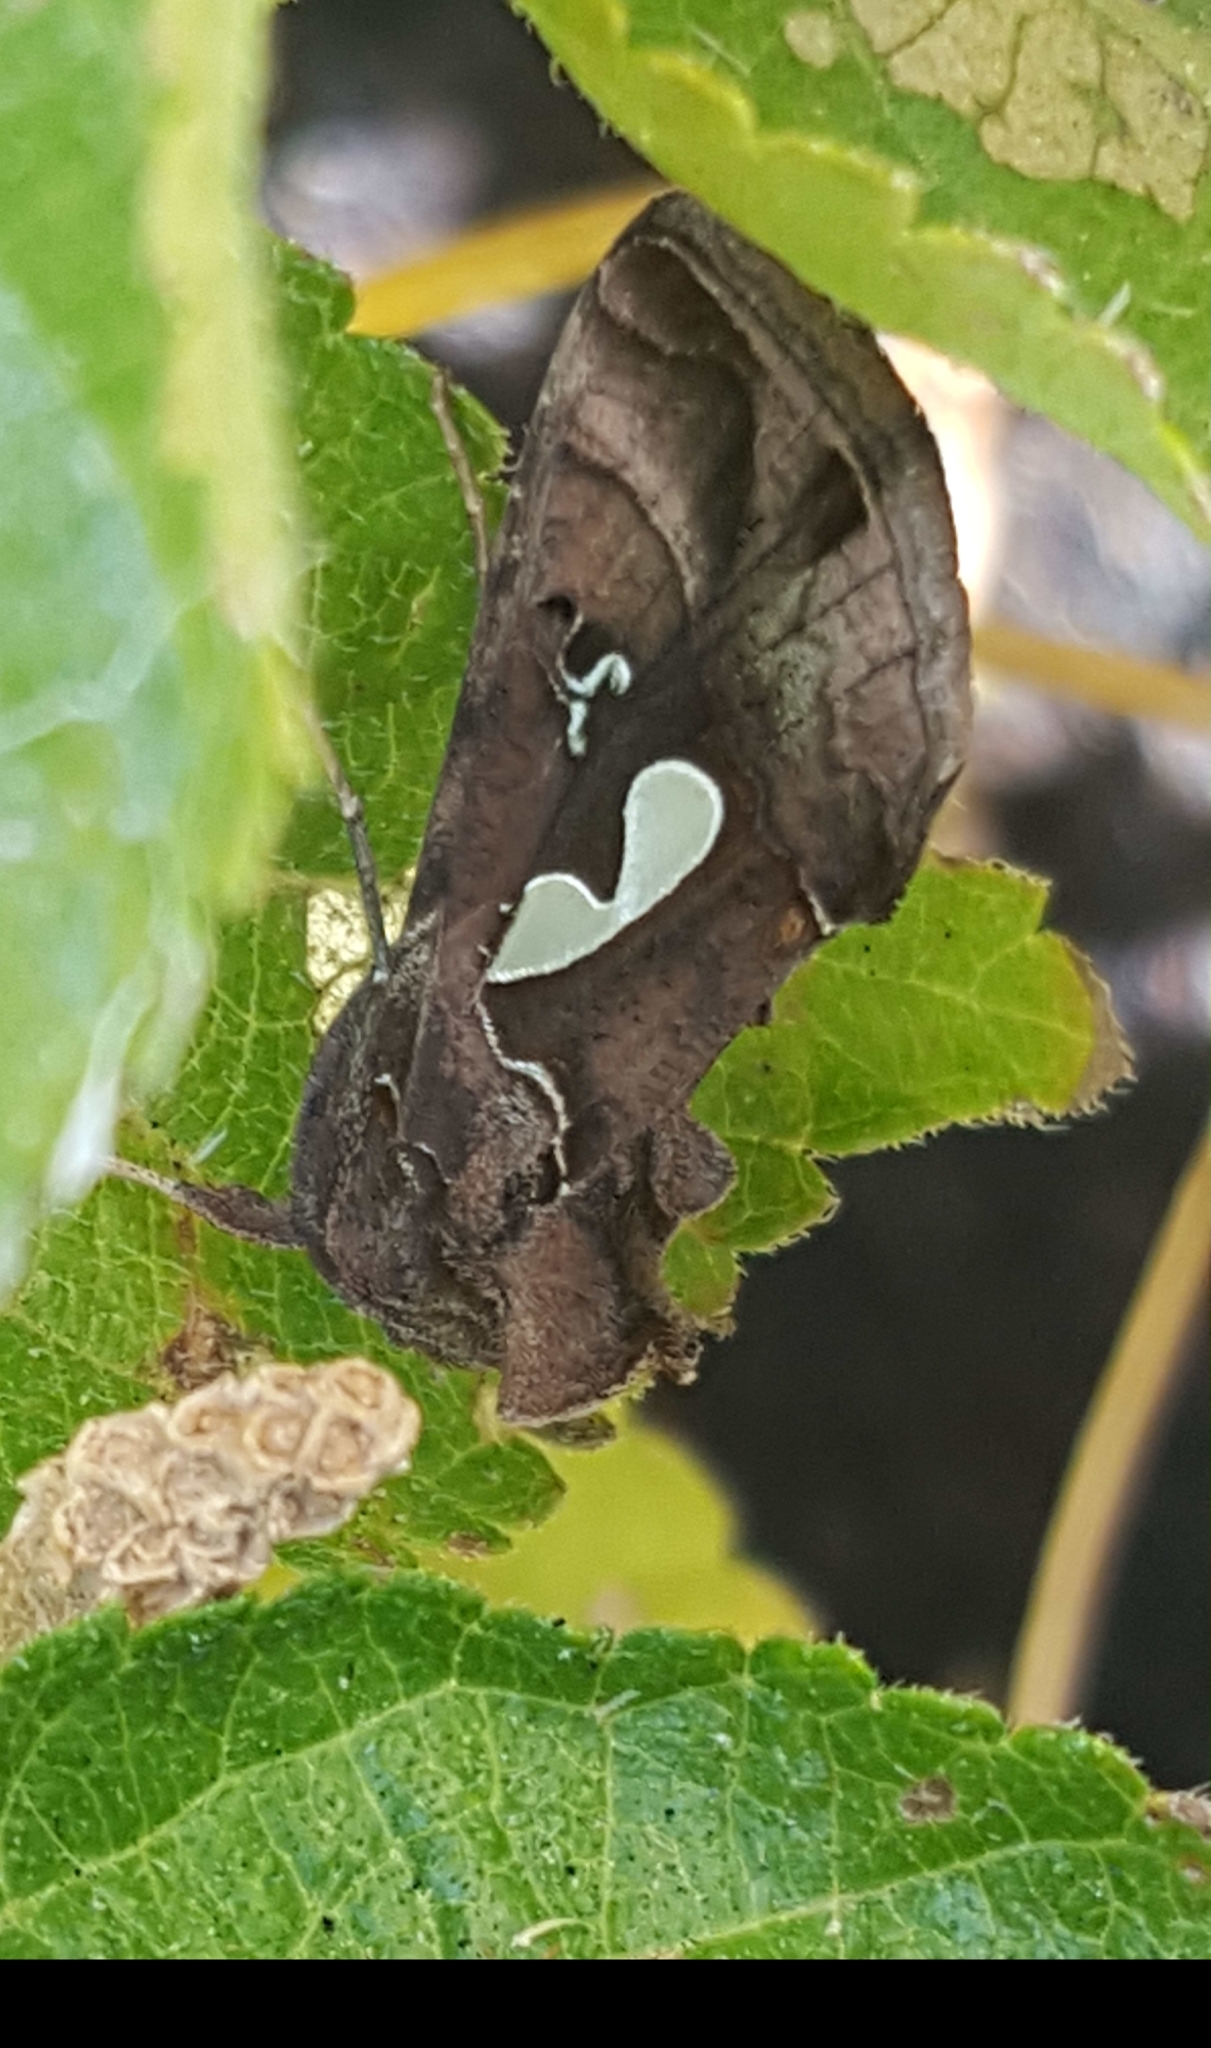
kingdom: Animalia
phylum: Arthropoda
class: Insecta
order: Lepidoptera
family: Noctuidae
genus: Megalographa
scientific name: Megalographa biloba
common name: Cutworm
